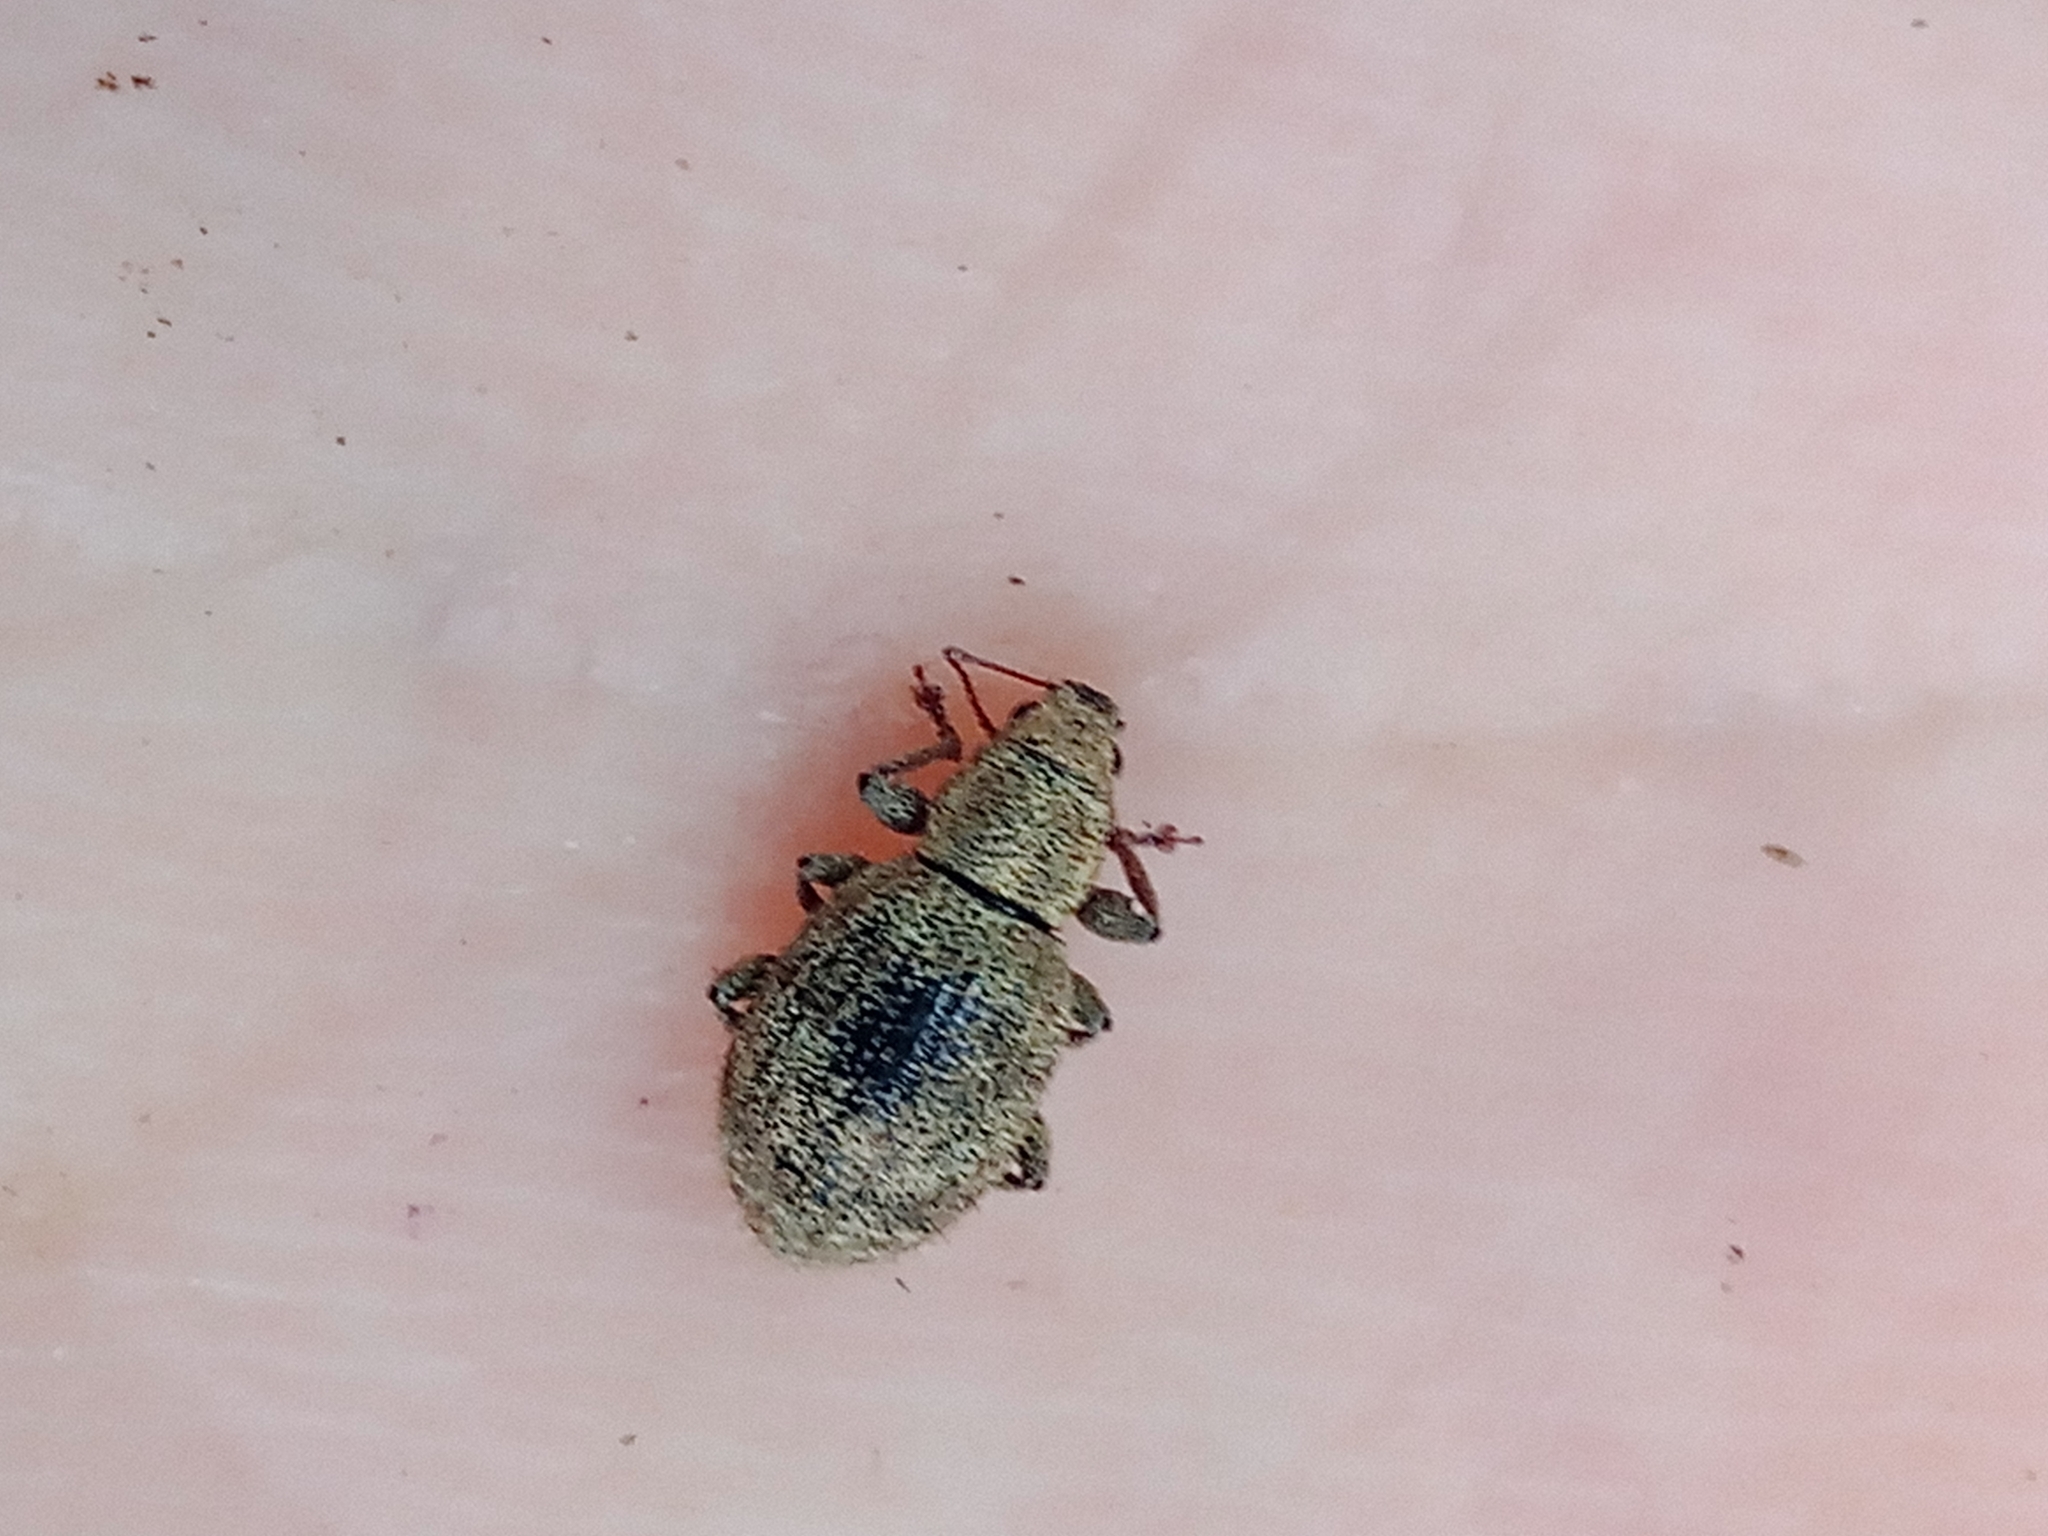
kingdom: Animalia
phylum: Arthropoda
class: Insecta
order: Coleoptera
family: Curculionidae
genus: Sciaphilus
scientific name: Sciaphilus asperatus
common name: Weevil
